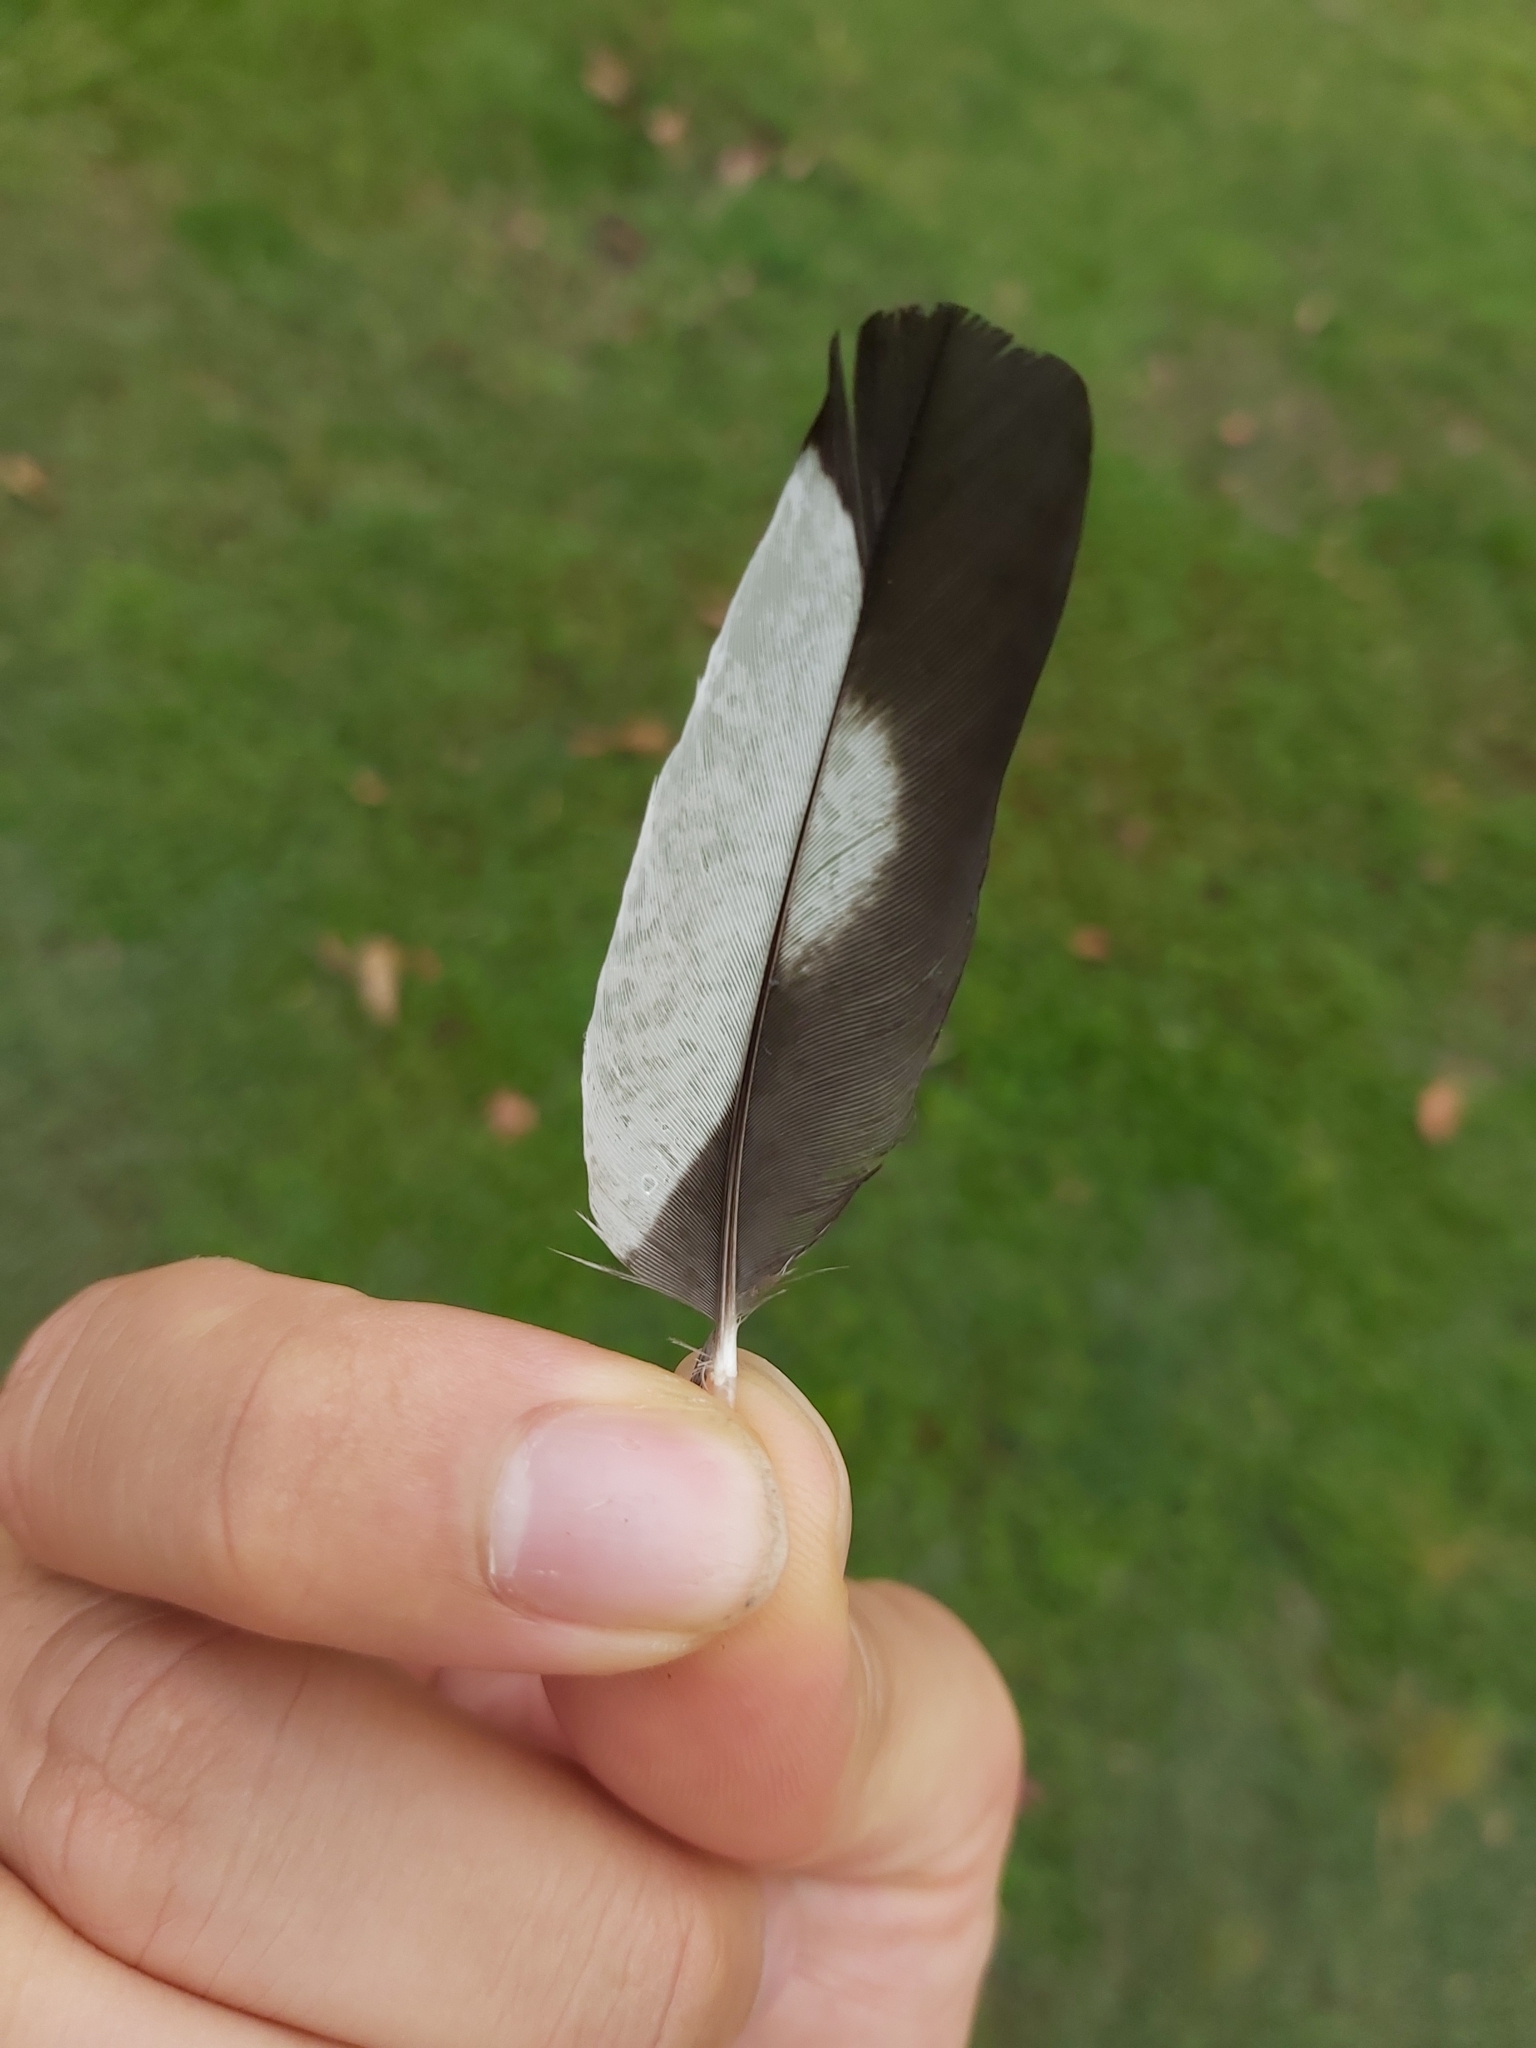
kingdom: Animalia
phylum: Chordata
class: Aves
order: Passeriformes
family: Cracticidae
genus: Gymnorhina
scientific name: Gymnorhina tibicen
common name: Australian magpie
